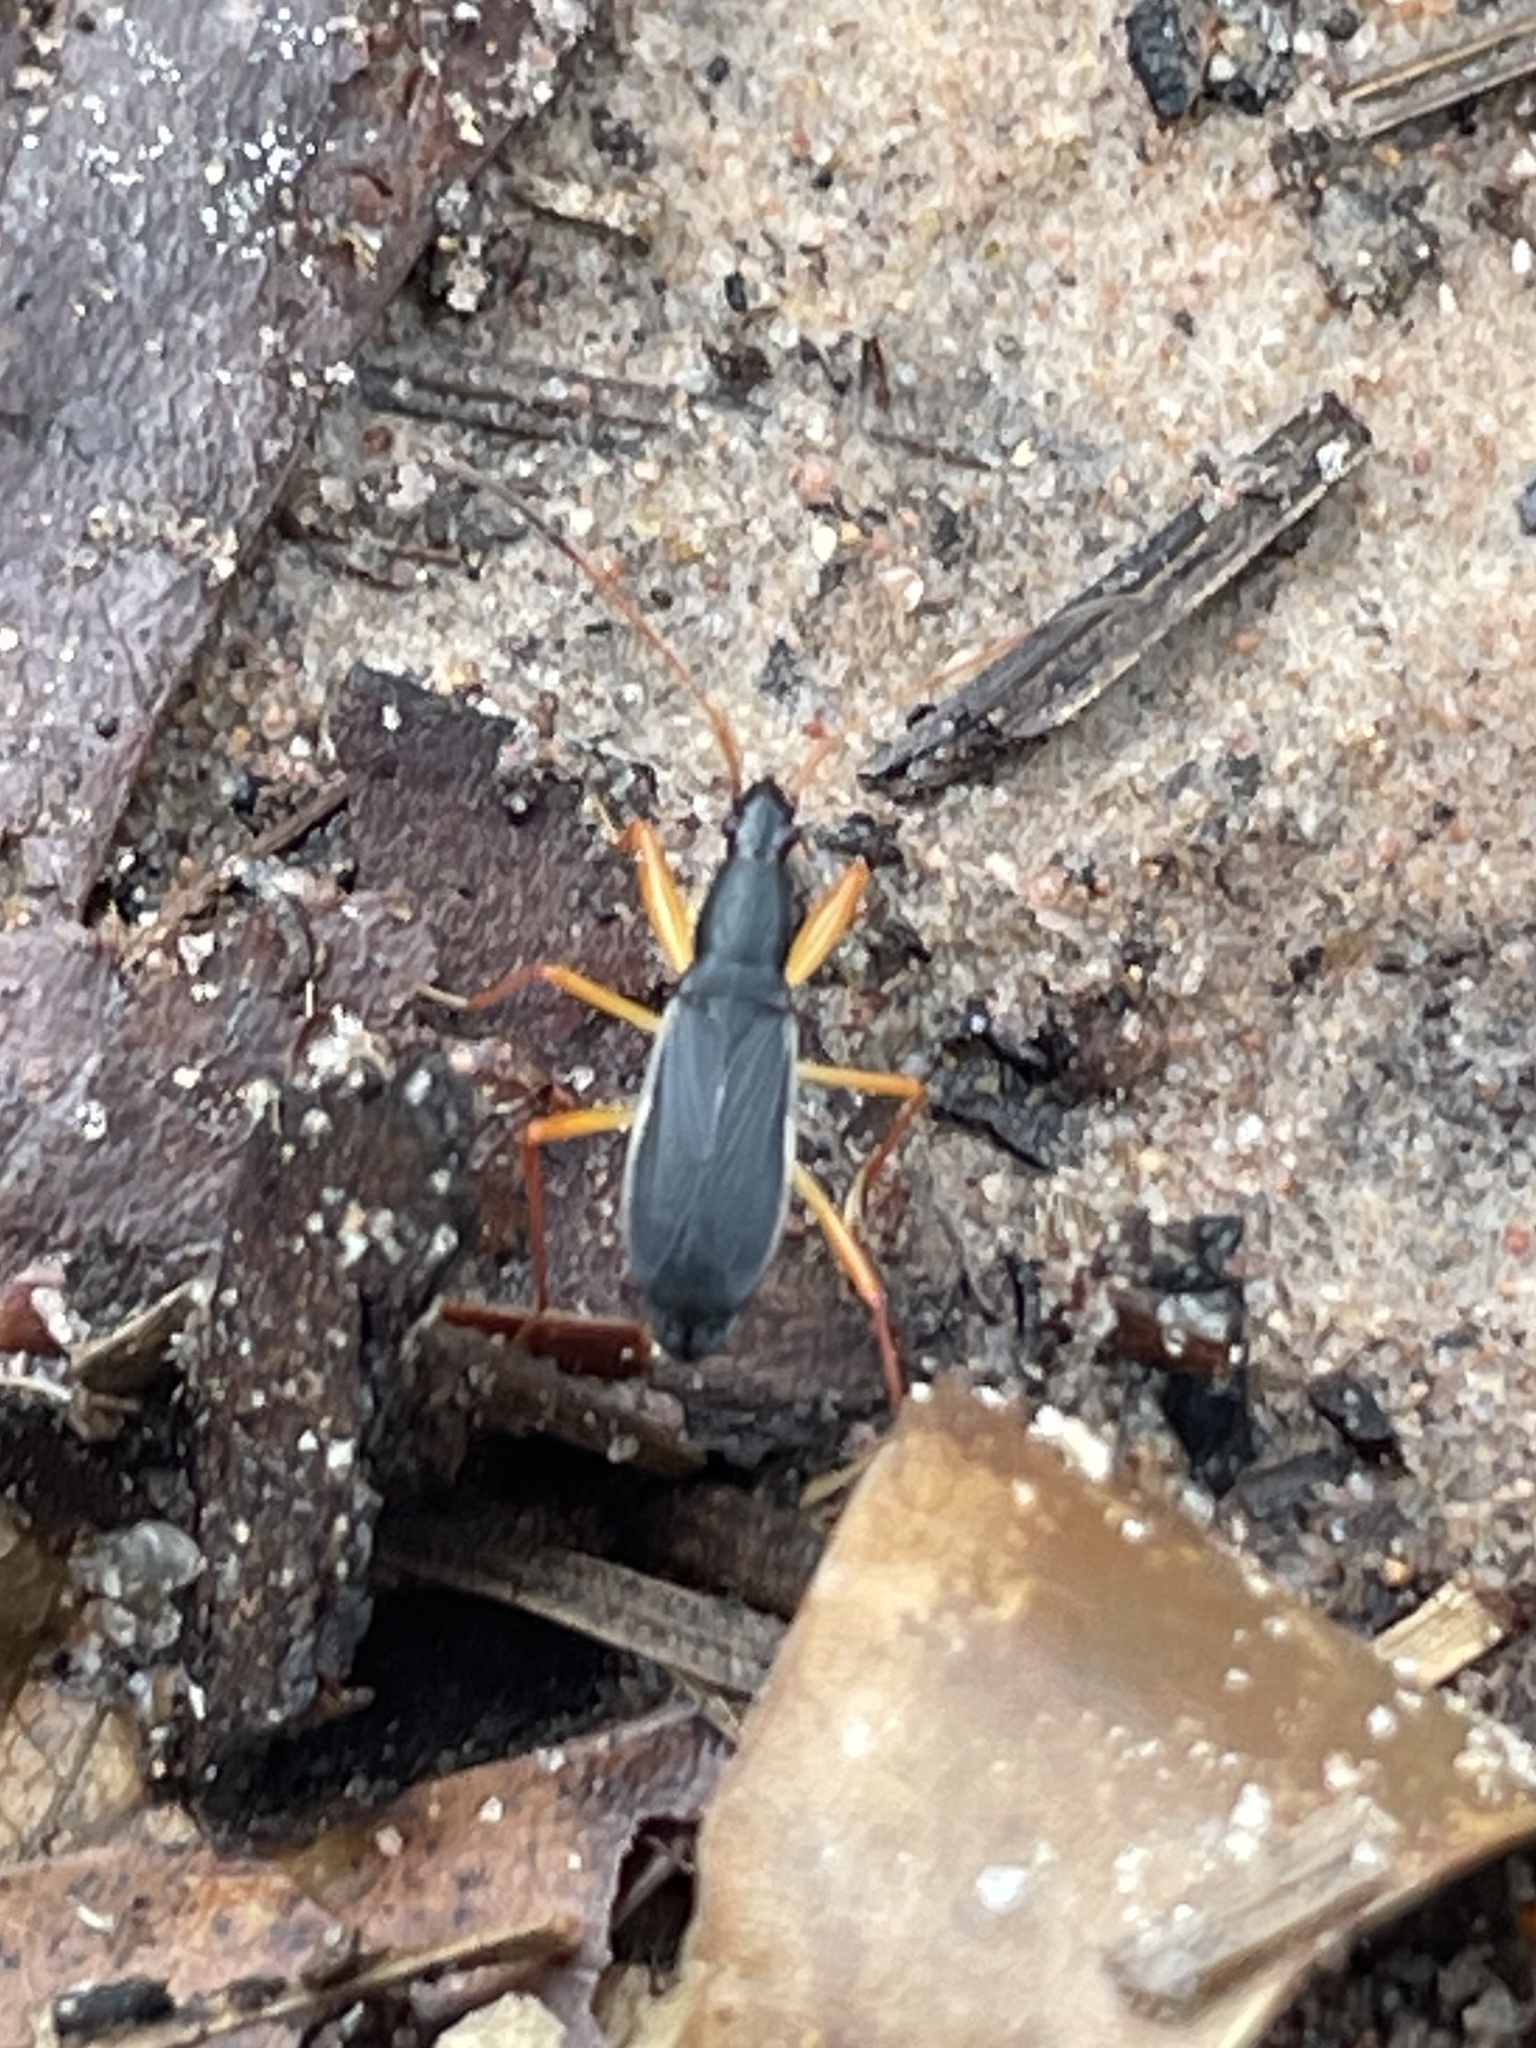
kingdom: Animalia
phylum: Arthropoda
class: Insecta
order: Hemiptera
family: Rhyparochromidae
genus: Cnemodus
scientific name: Cnemodus mavortius
